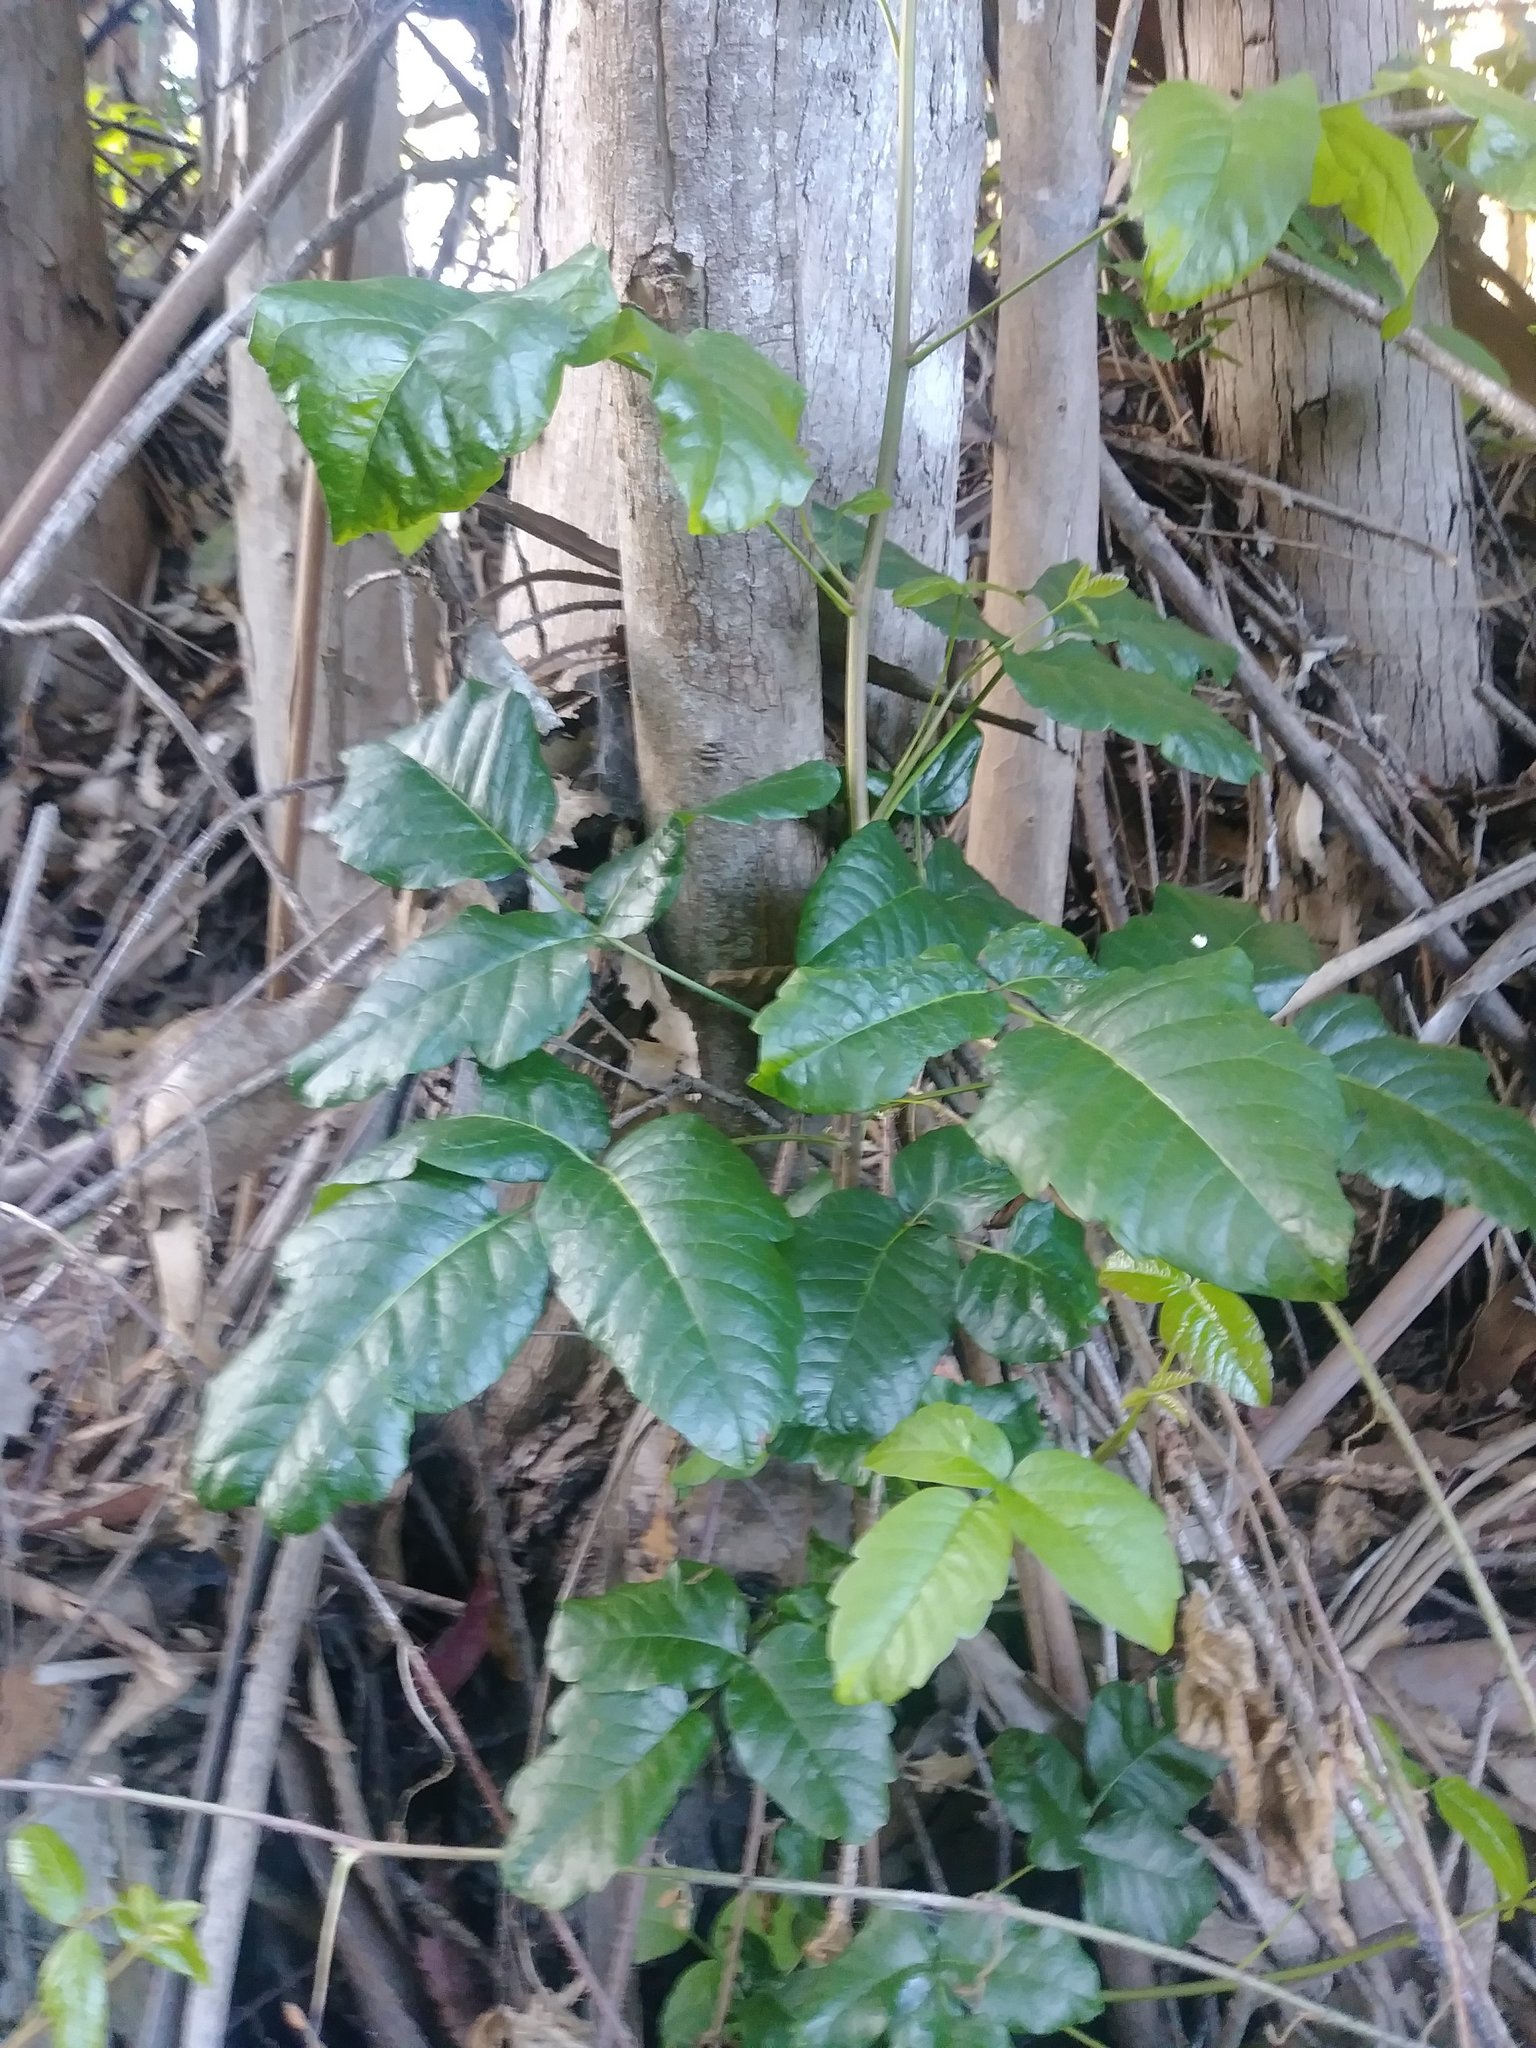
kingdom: Plantae
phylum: Tracheophyta
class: Magnoliopsida
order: Sapindales
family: Anacardiaceae
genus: Toxicodendron
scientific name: Toxicodendron diversilobum
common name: Pacific poison-oak
